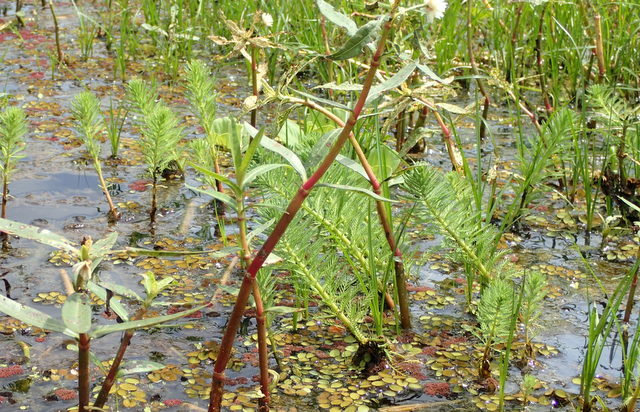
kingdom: Plantae
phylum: Tracheophyta
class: Magnoliopsida
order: Saxifragales
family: Haloragaceae
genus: Myriophyllum
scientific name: Myriophyllum aquaticum
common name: Parrot's feather
